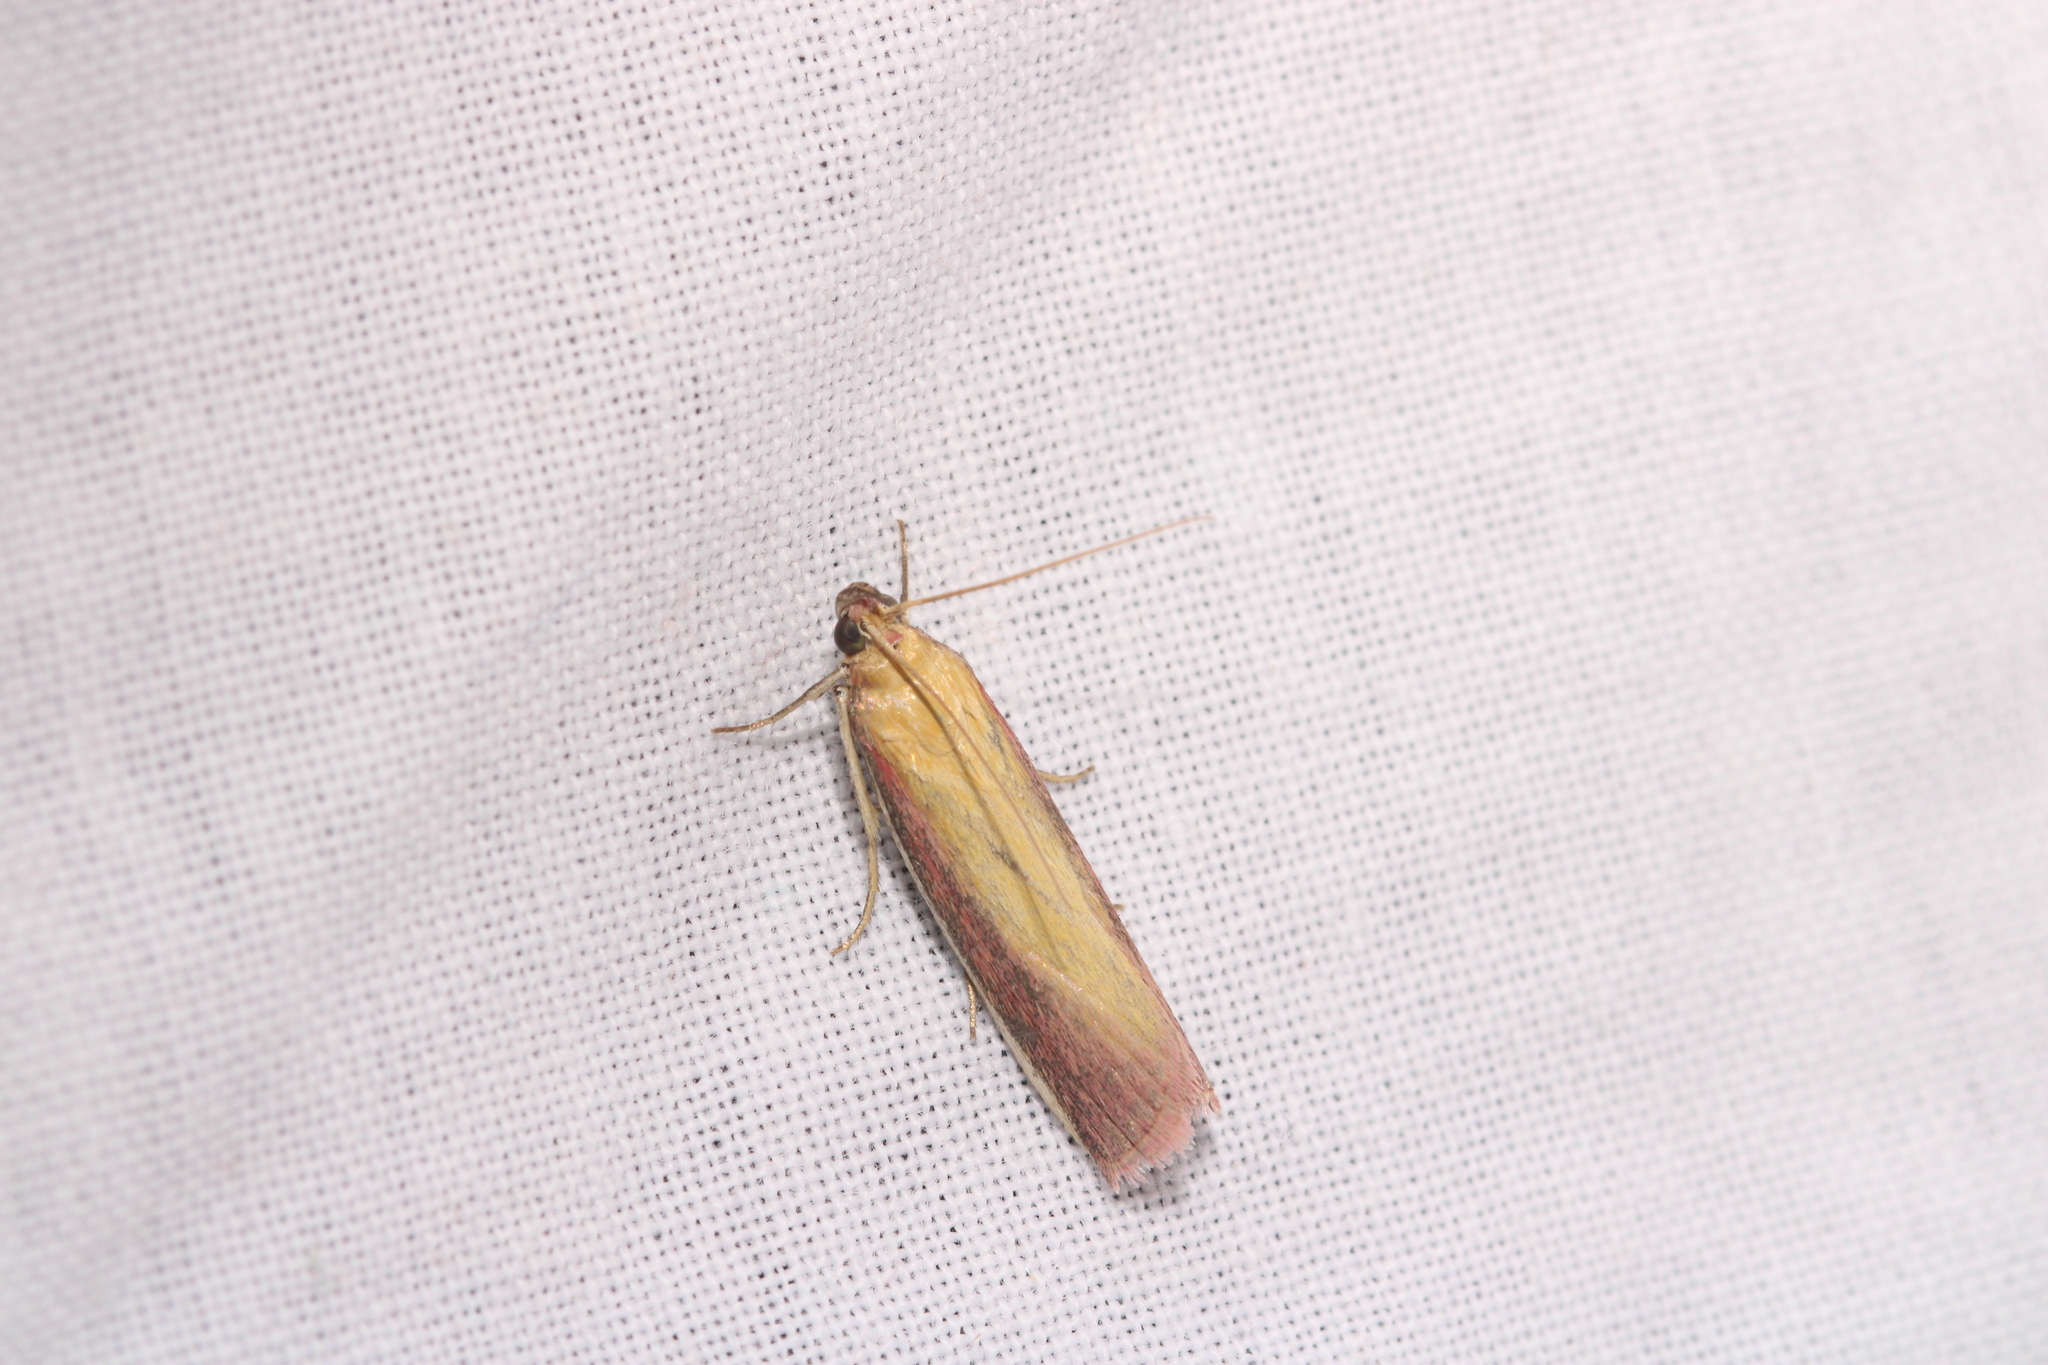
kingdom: Animalia
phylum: Arthropoda
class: Insecta
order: Lepidoptera
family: Pyralidae
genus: Oncocera
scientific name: Oncocera semirubella
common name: Rosy-striped knot-horn
